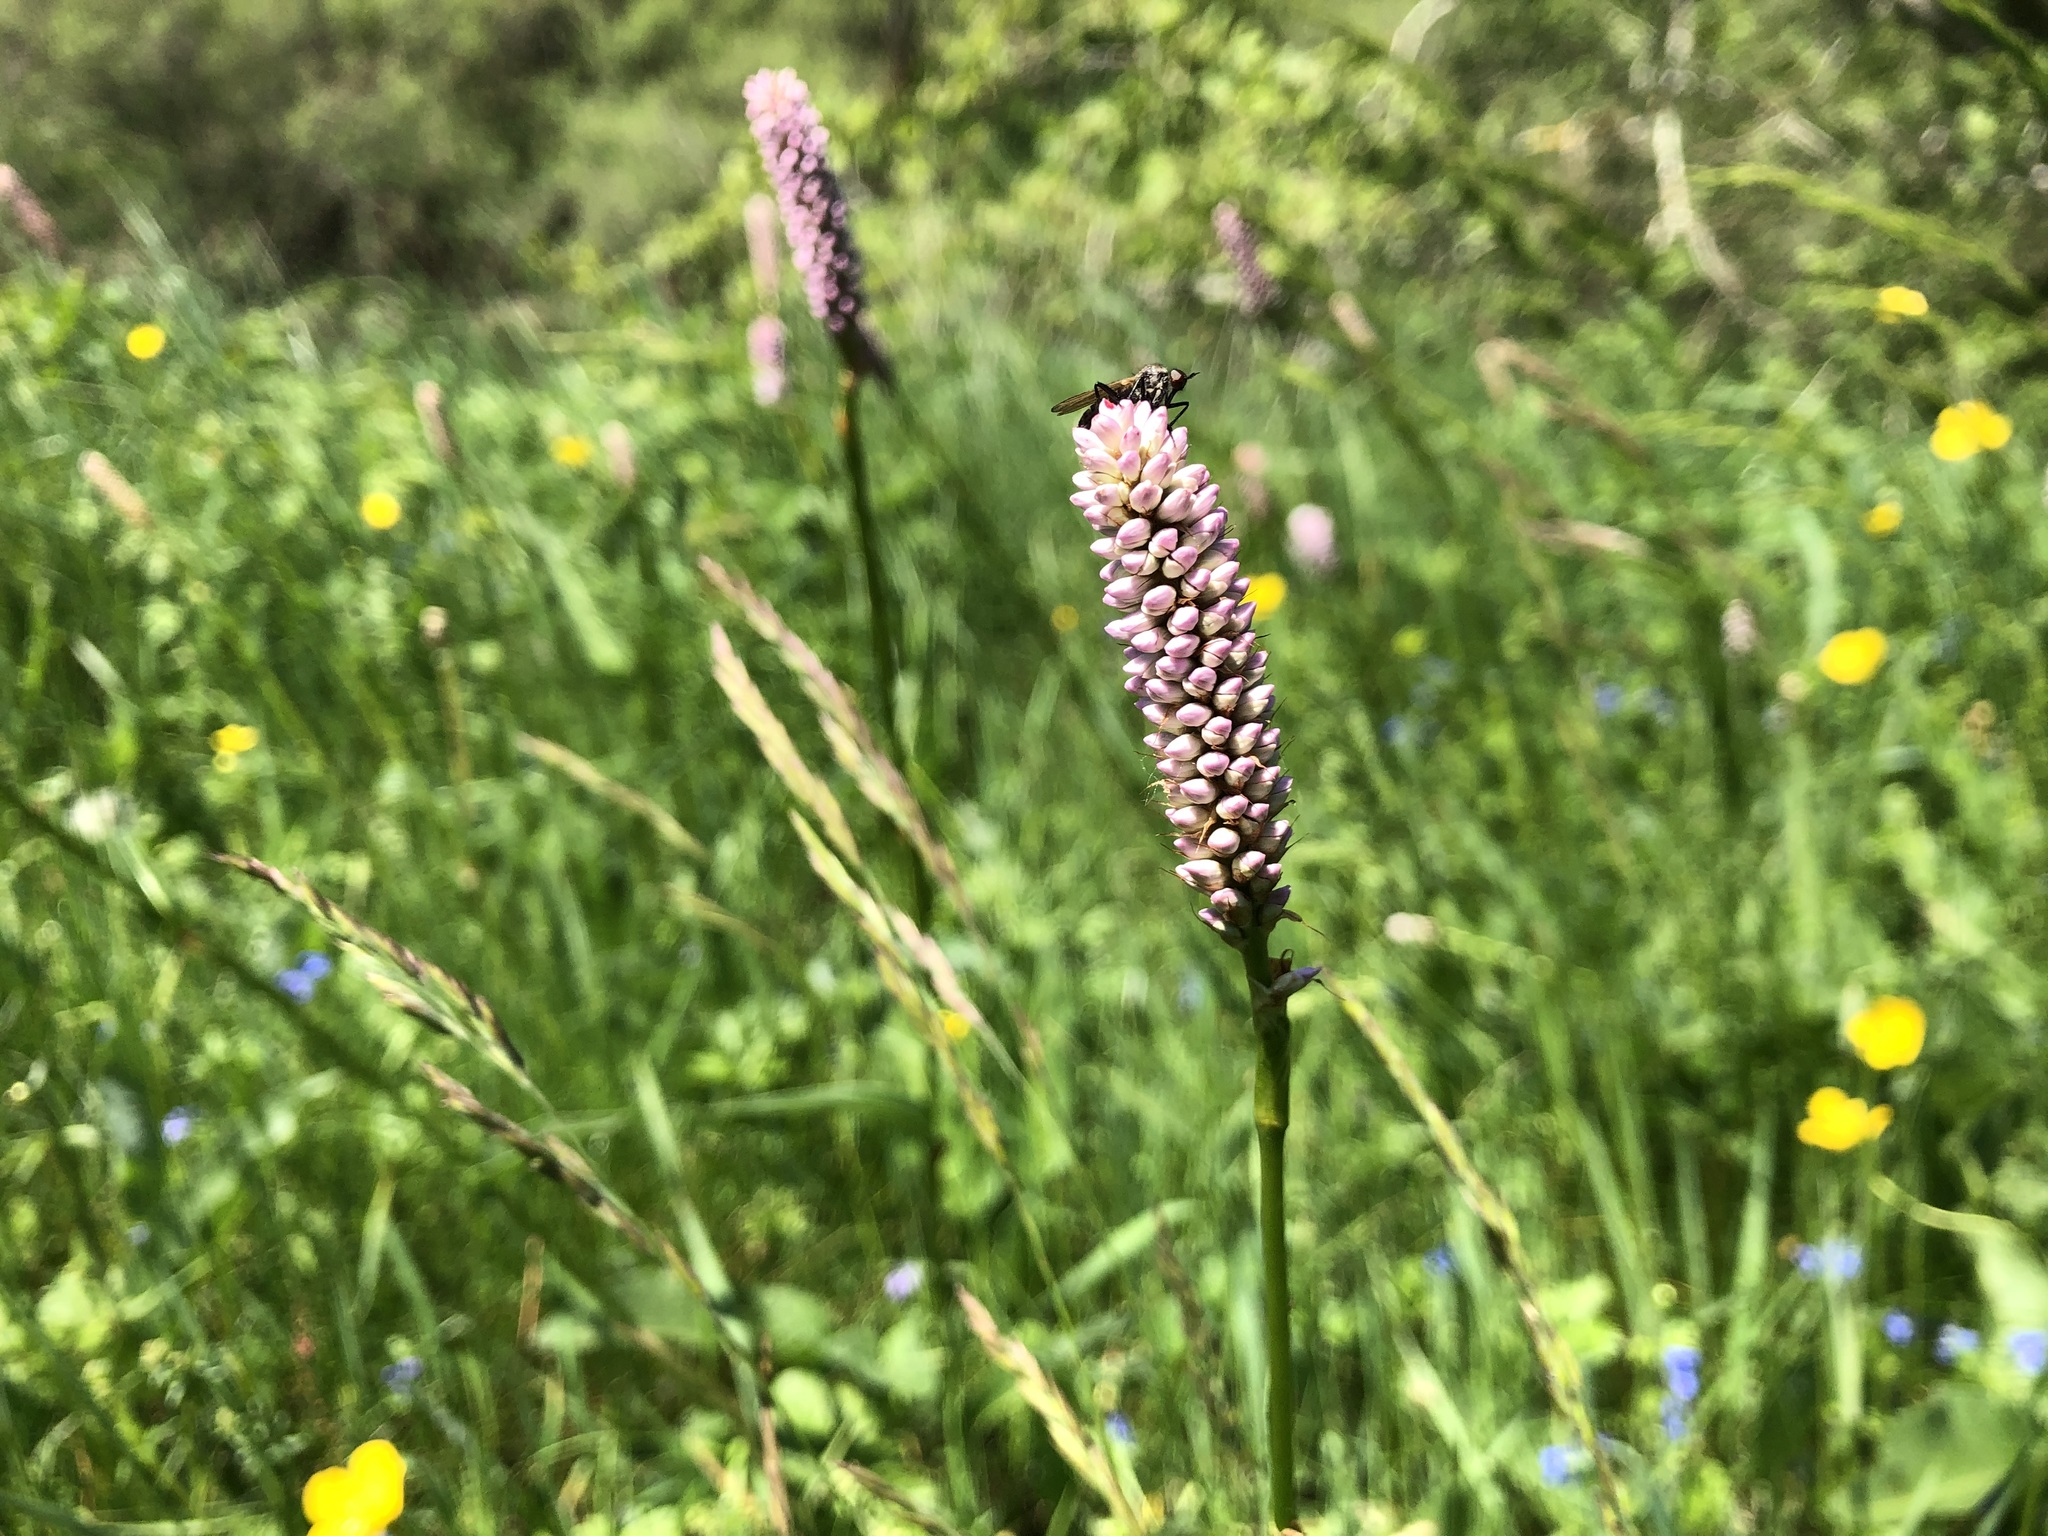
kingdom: Plantae
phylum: Tracheophyta
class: Magnoliopsida
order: Caryophyllales
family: Polygonaceae
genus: Bistorta
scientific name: Bistorta officinalis
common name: Common bistort
